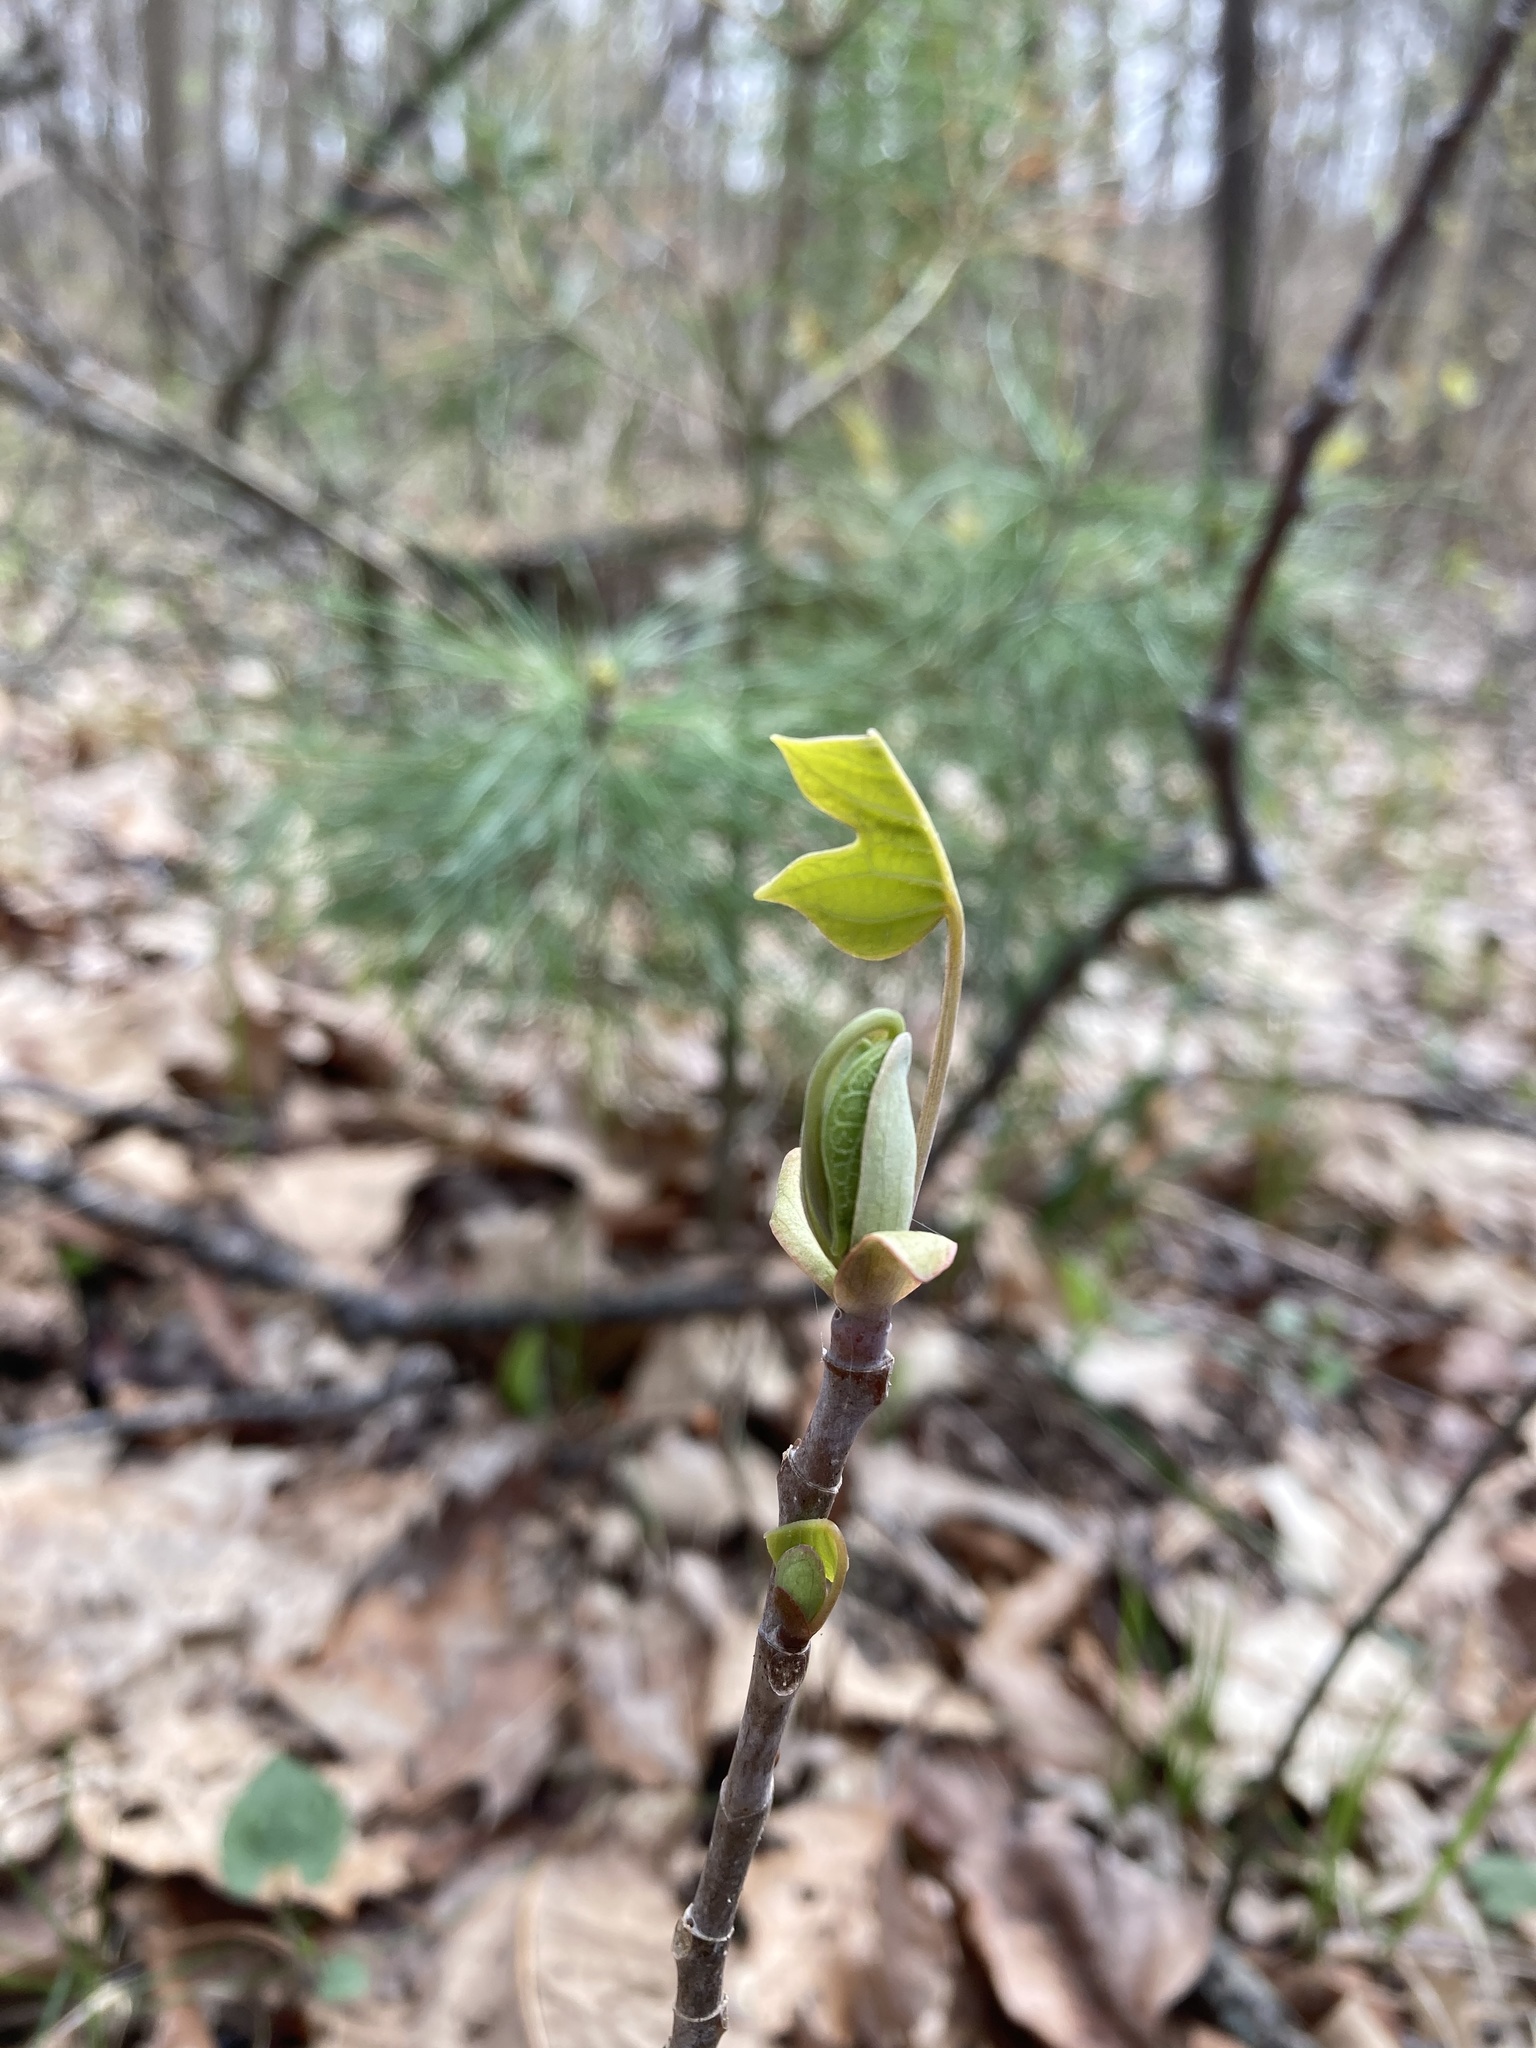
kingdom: Plantae
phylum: Tracheophyta
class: Magnoliopsida
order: Magnoliales
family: Magnoliaceae
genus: Liriodendron
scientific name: Liriodendron tulipifera
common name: Tulip tree
